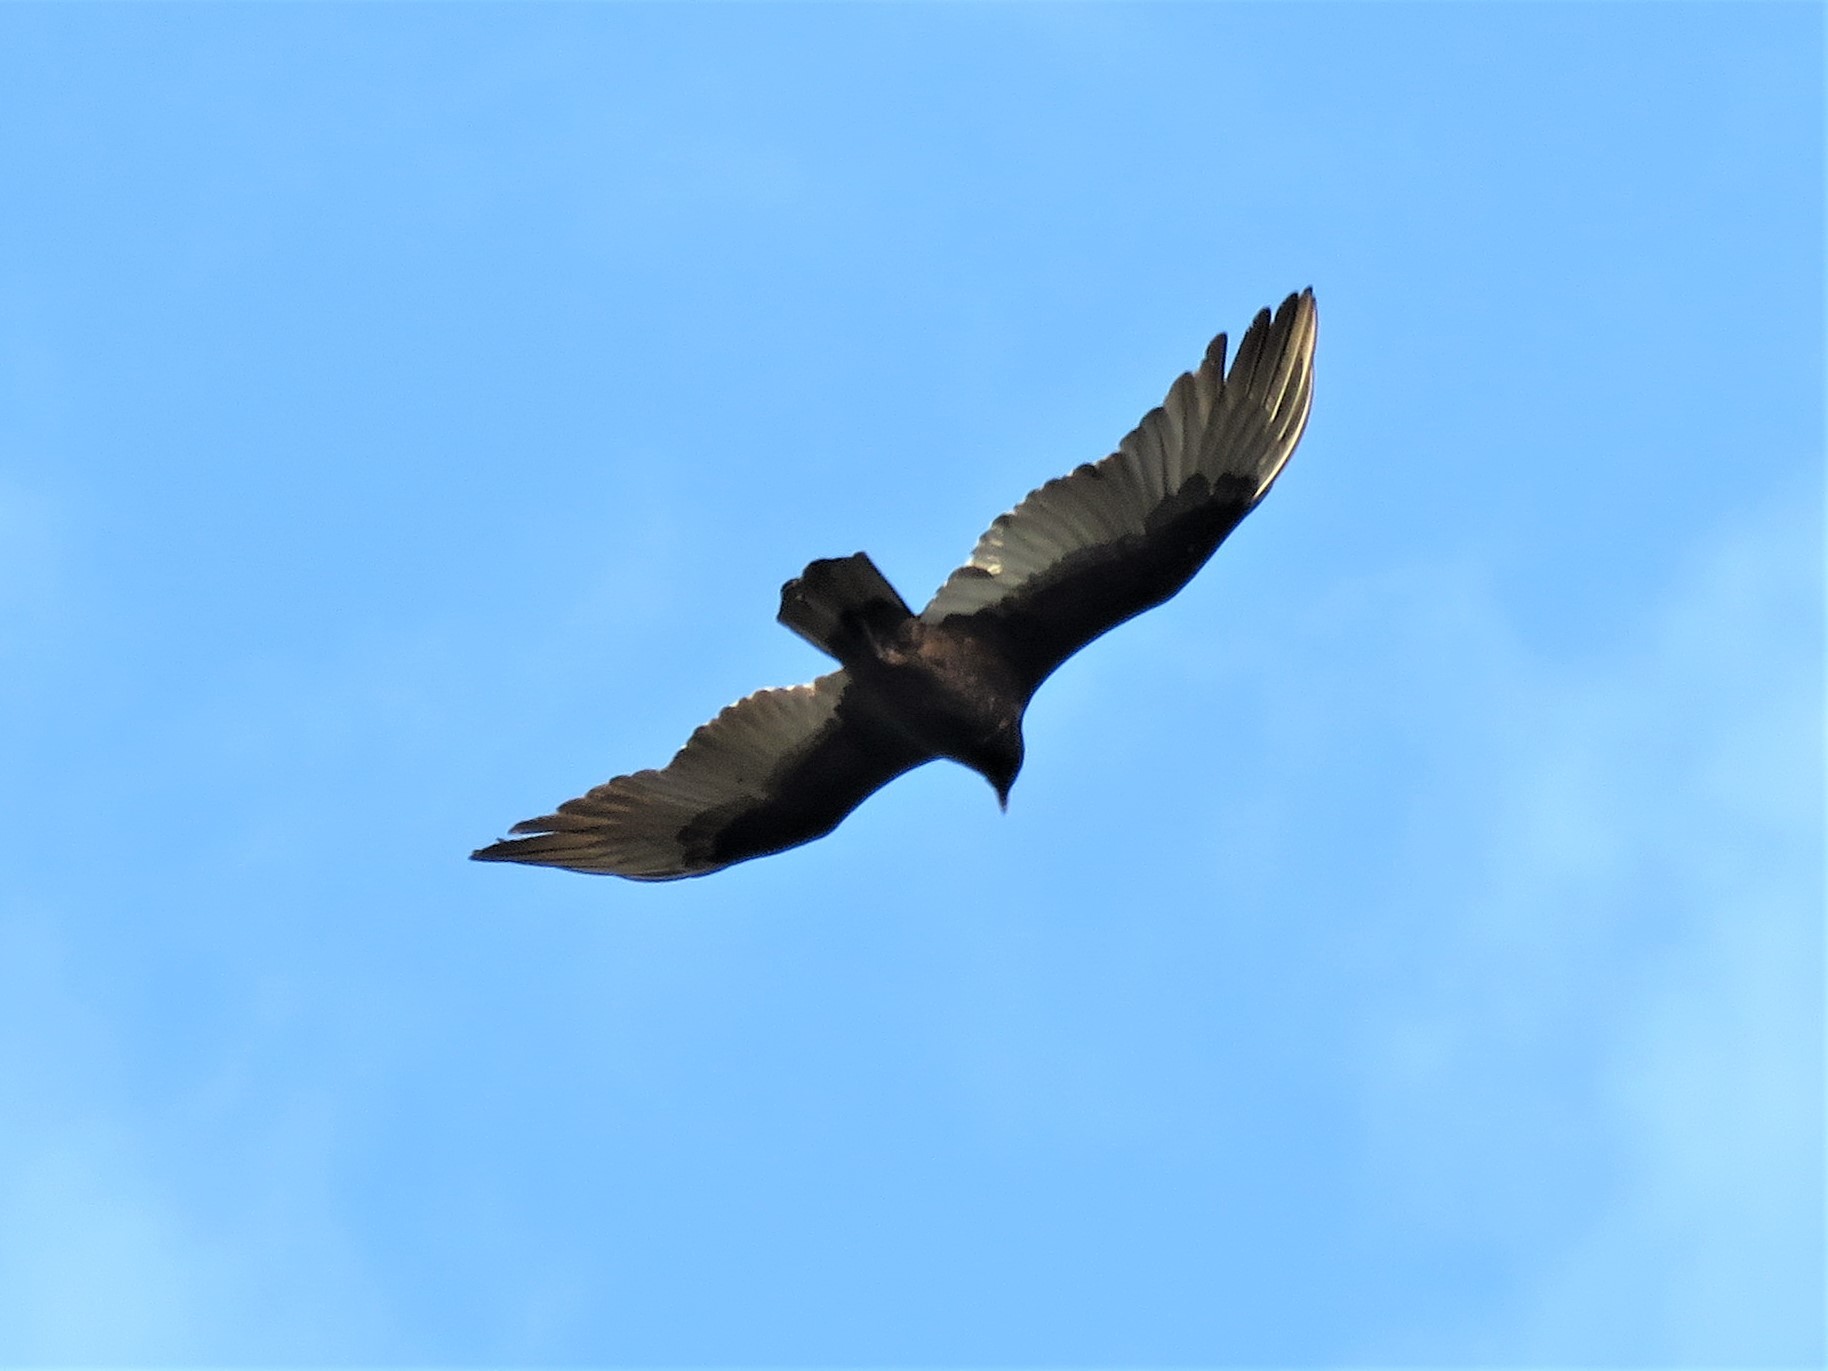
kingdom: Animalia
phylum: Chordata
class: Aves
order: Accipitriformes
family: Cathartidae
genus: Cathartes
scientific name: Cathartes aura
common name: Turkey vulture
